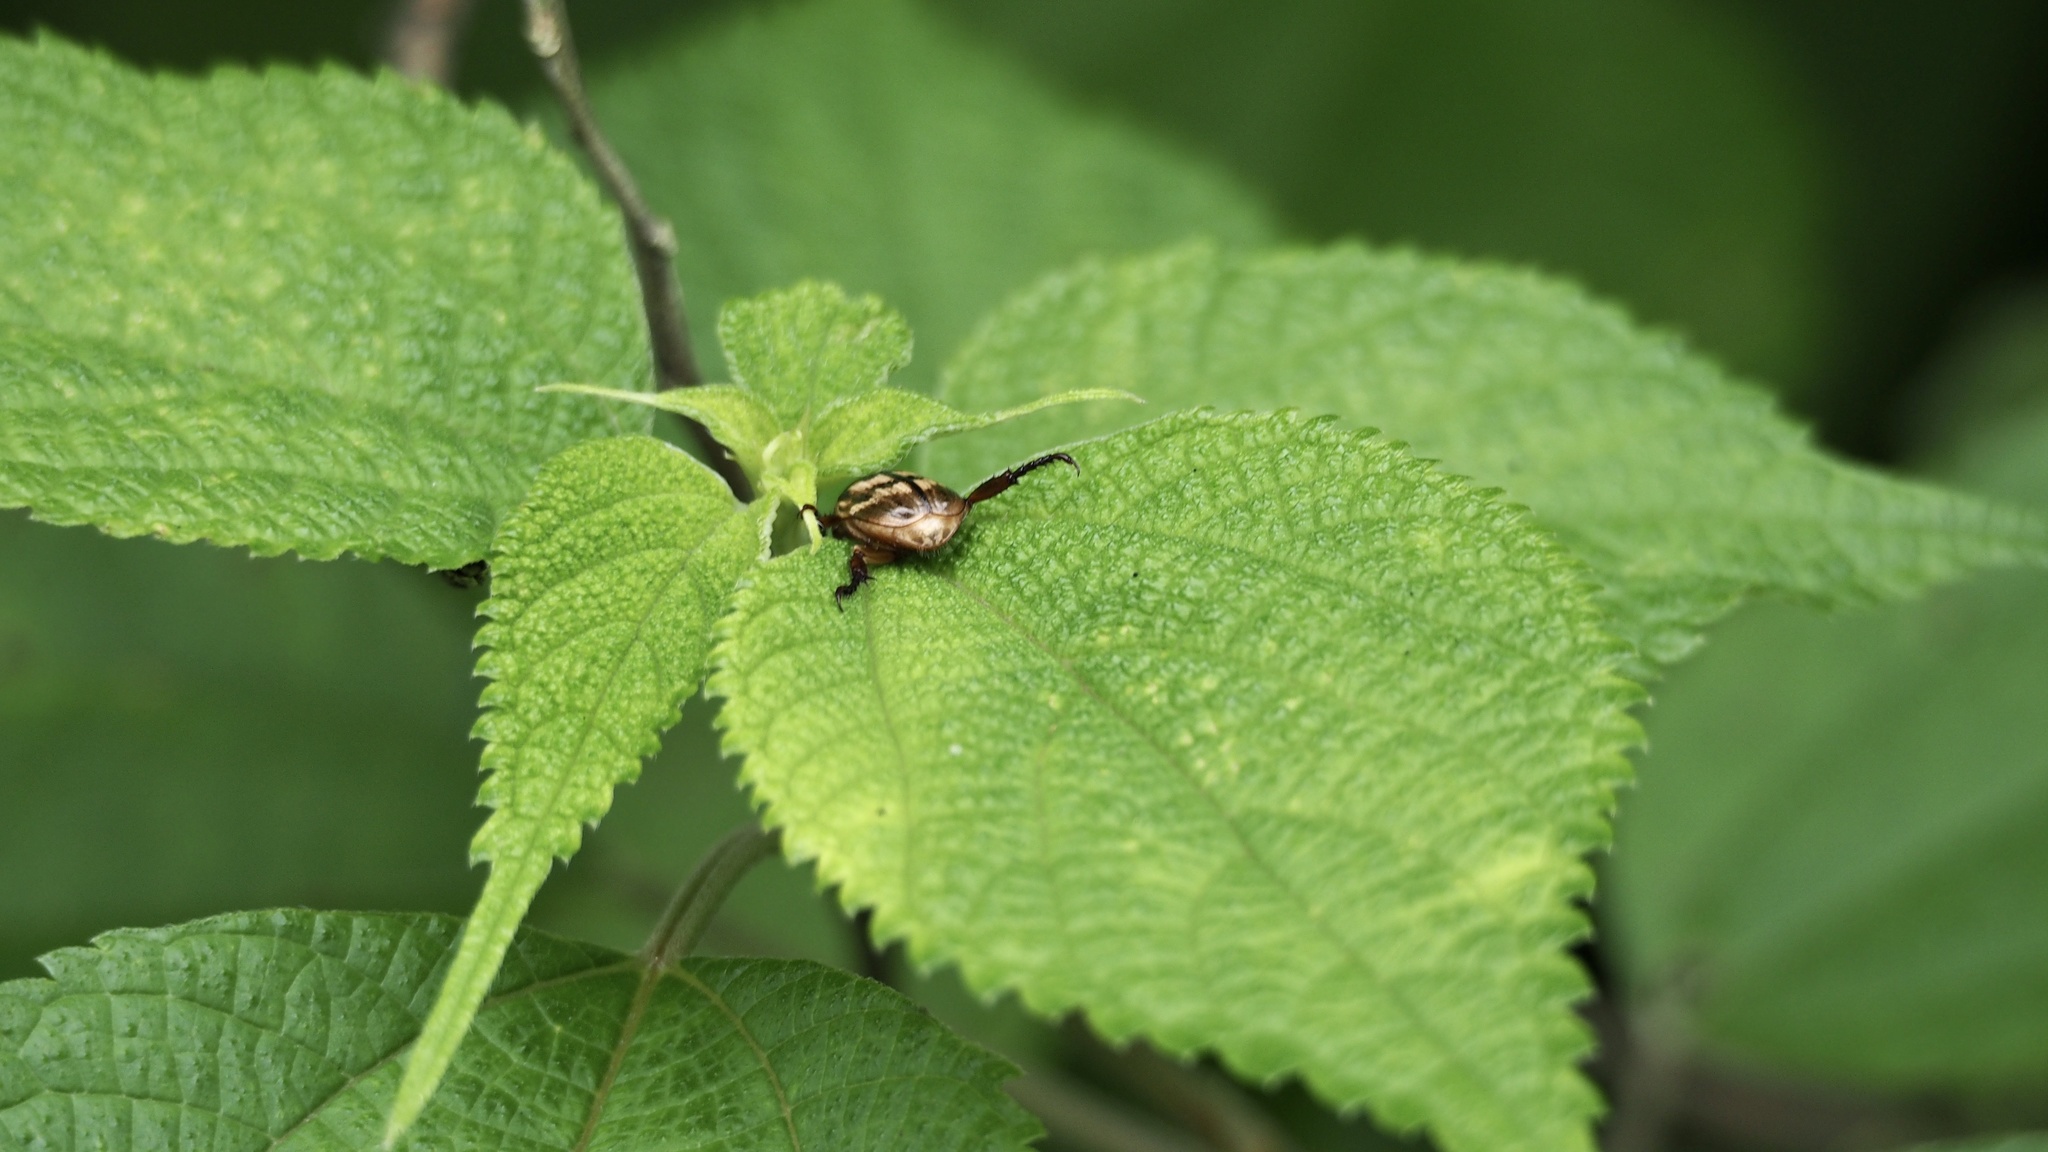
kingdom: Animalia
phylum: Arthropoda
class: Insecta
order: Coleoptera
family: Scarabaeidae
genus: Exomala
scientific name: Exomala orientalis
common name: Oriental beetle
